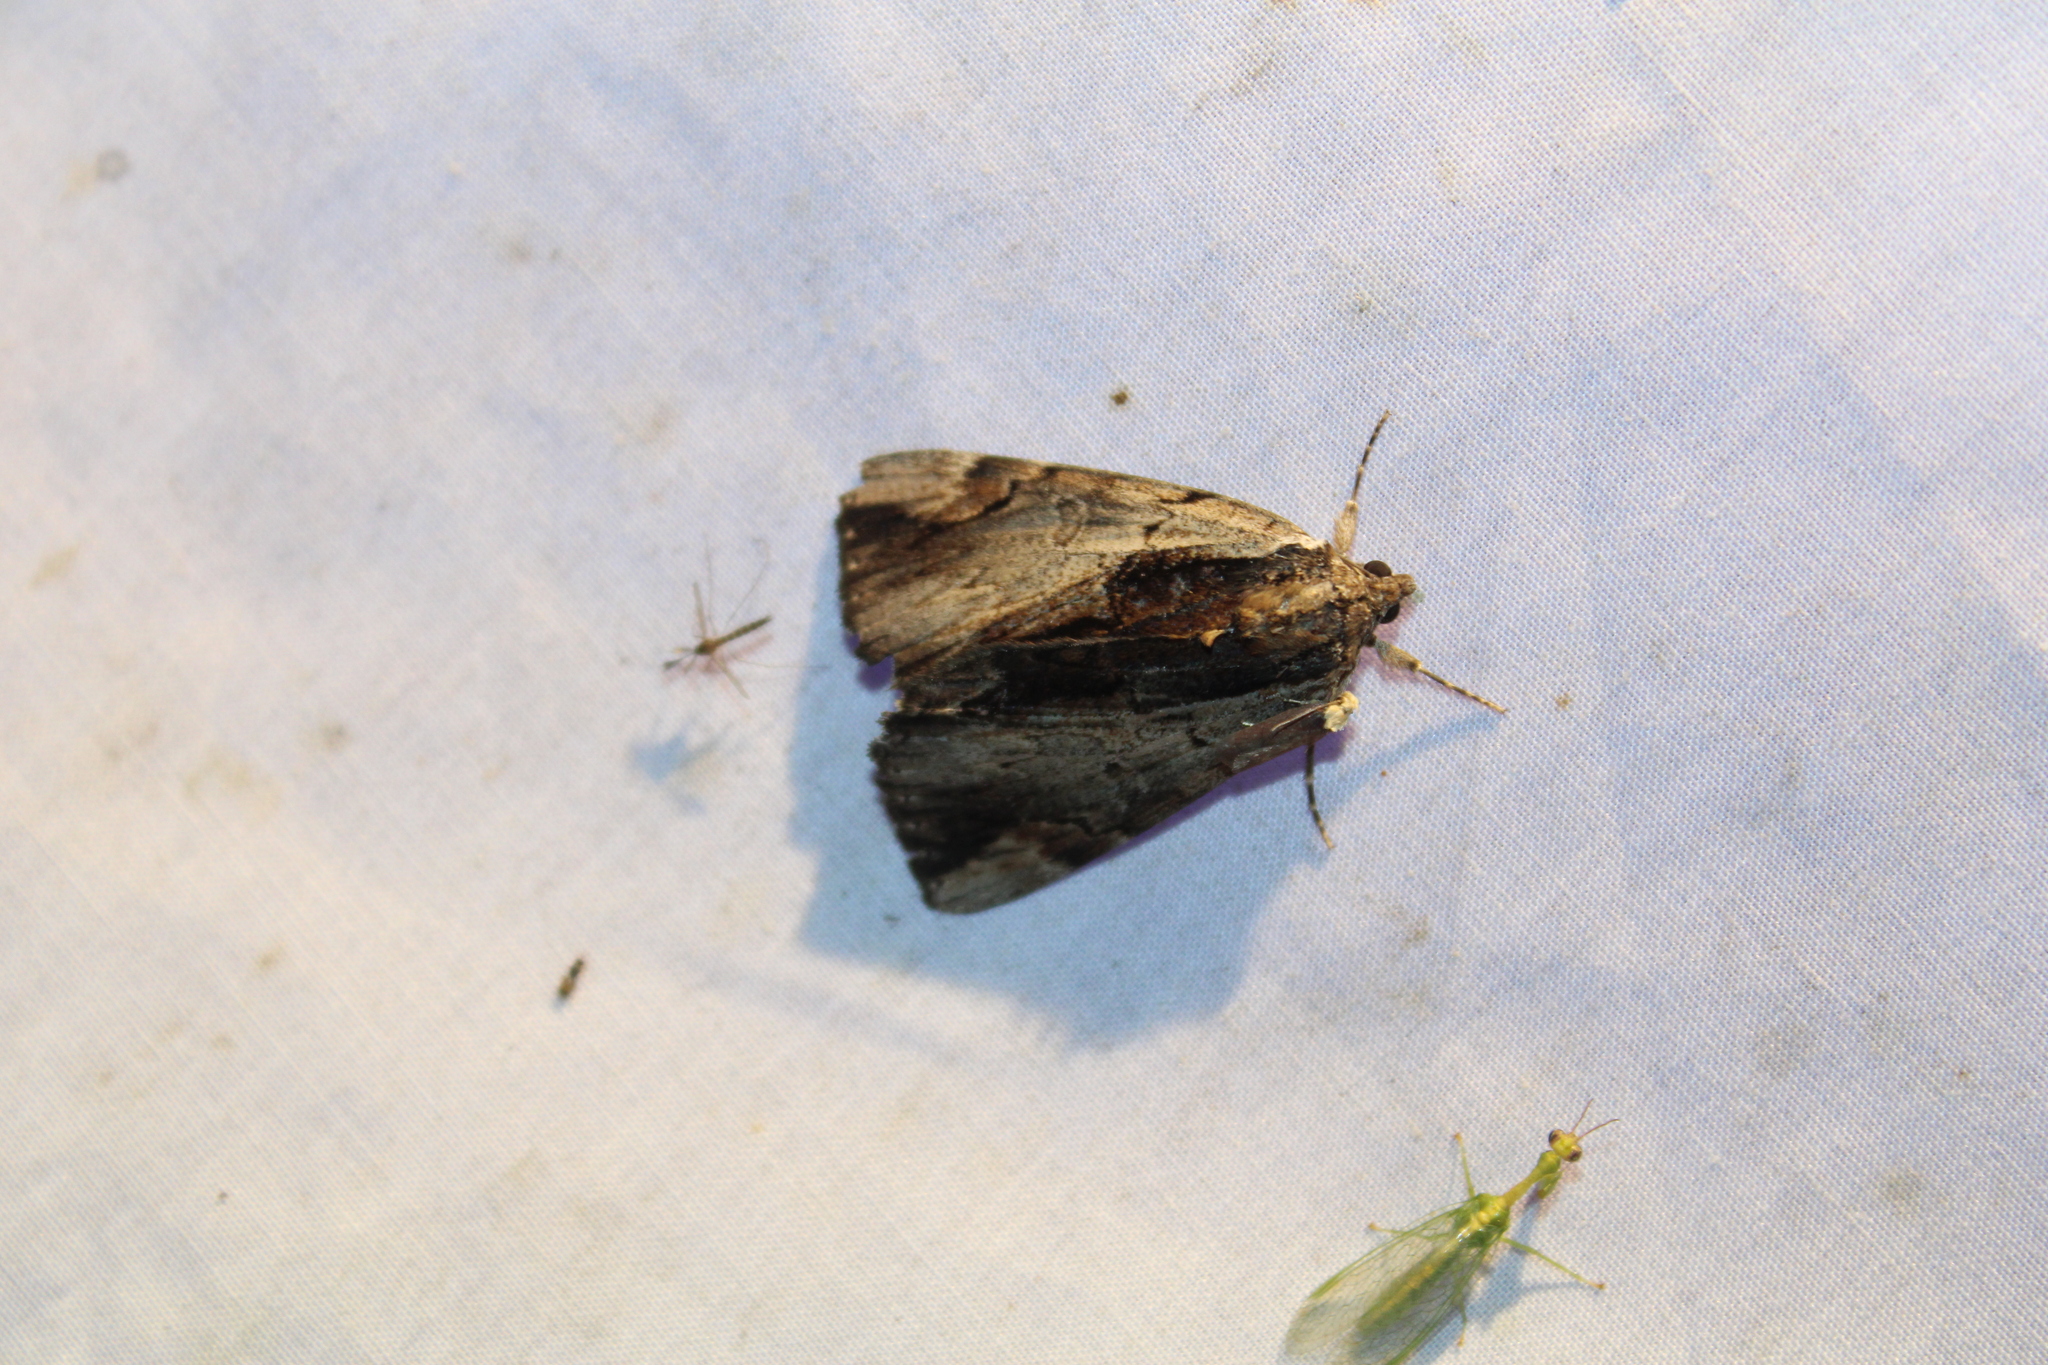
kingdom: Animalia
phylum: Arthropoda
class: Insecta
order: Lepidoptera
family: Erebidae
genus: Catocala
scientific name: Catocala ultronia
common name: Ultronia underwing
